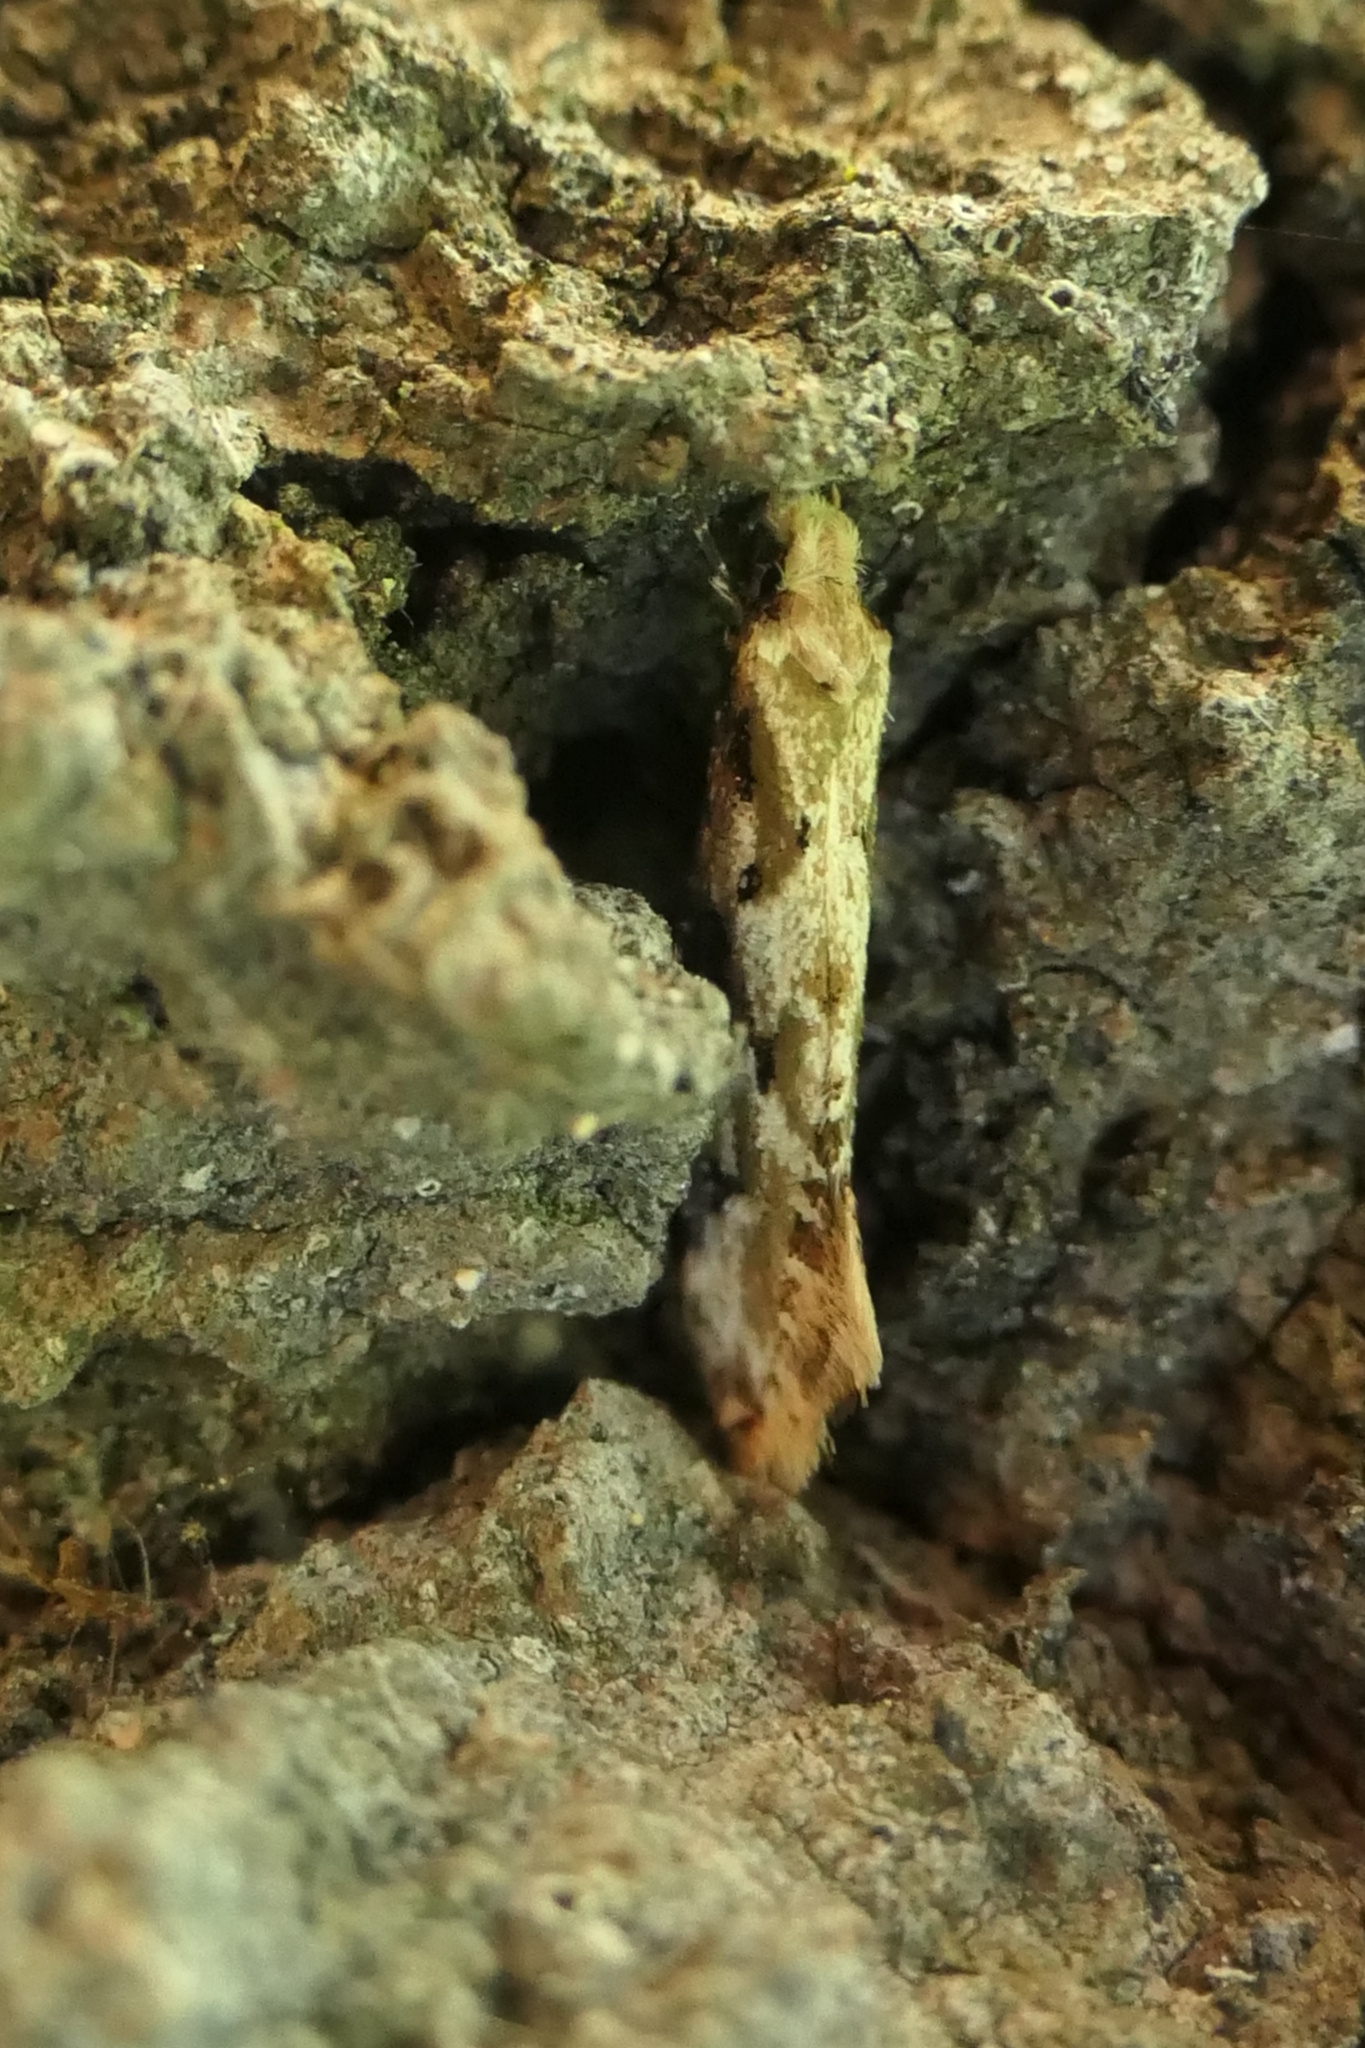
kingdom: Animalia
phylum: Arthropoda
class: Insecta
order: Lepidoptera
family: Tineidae
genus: Crypsitricha
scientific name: Crypsitricha mesotypa
